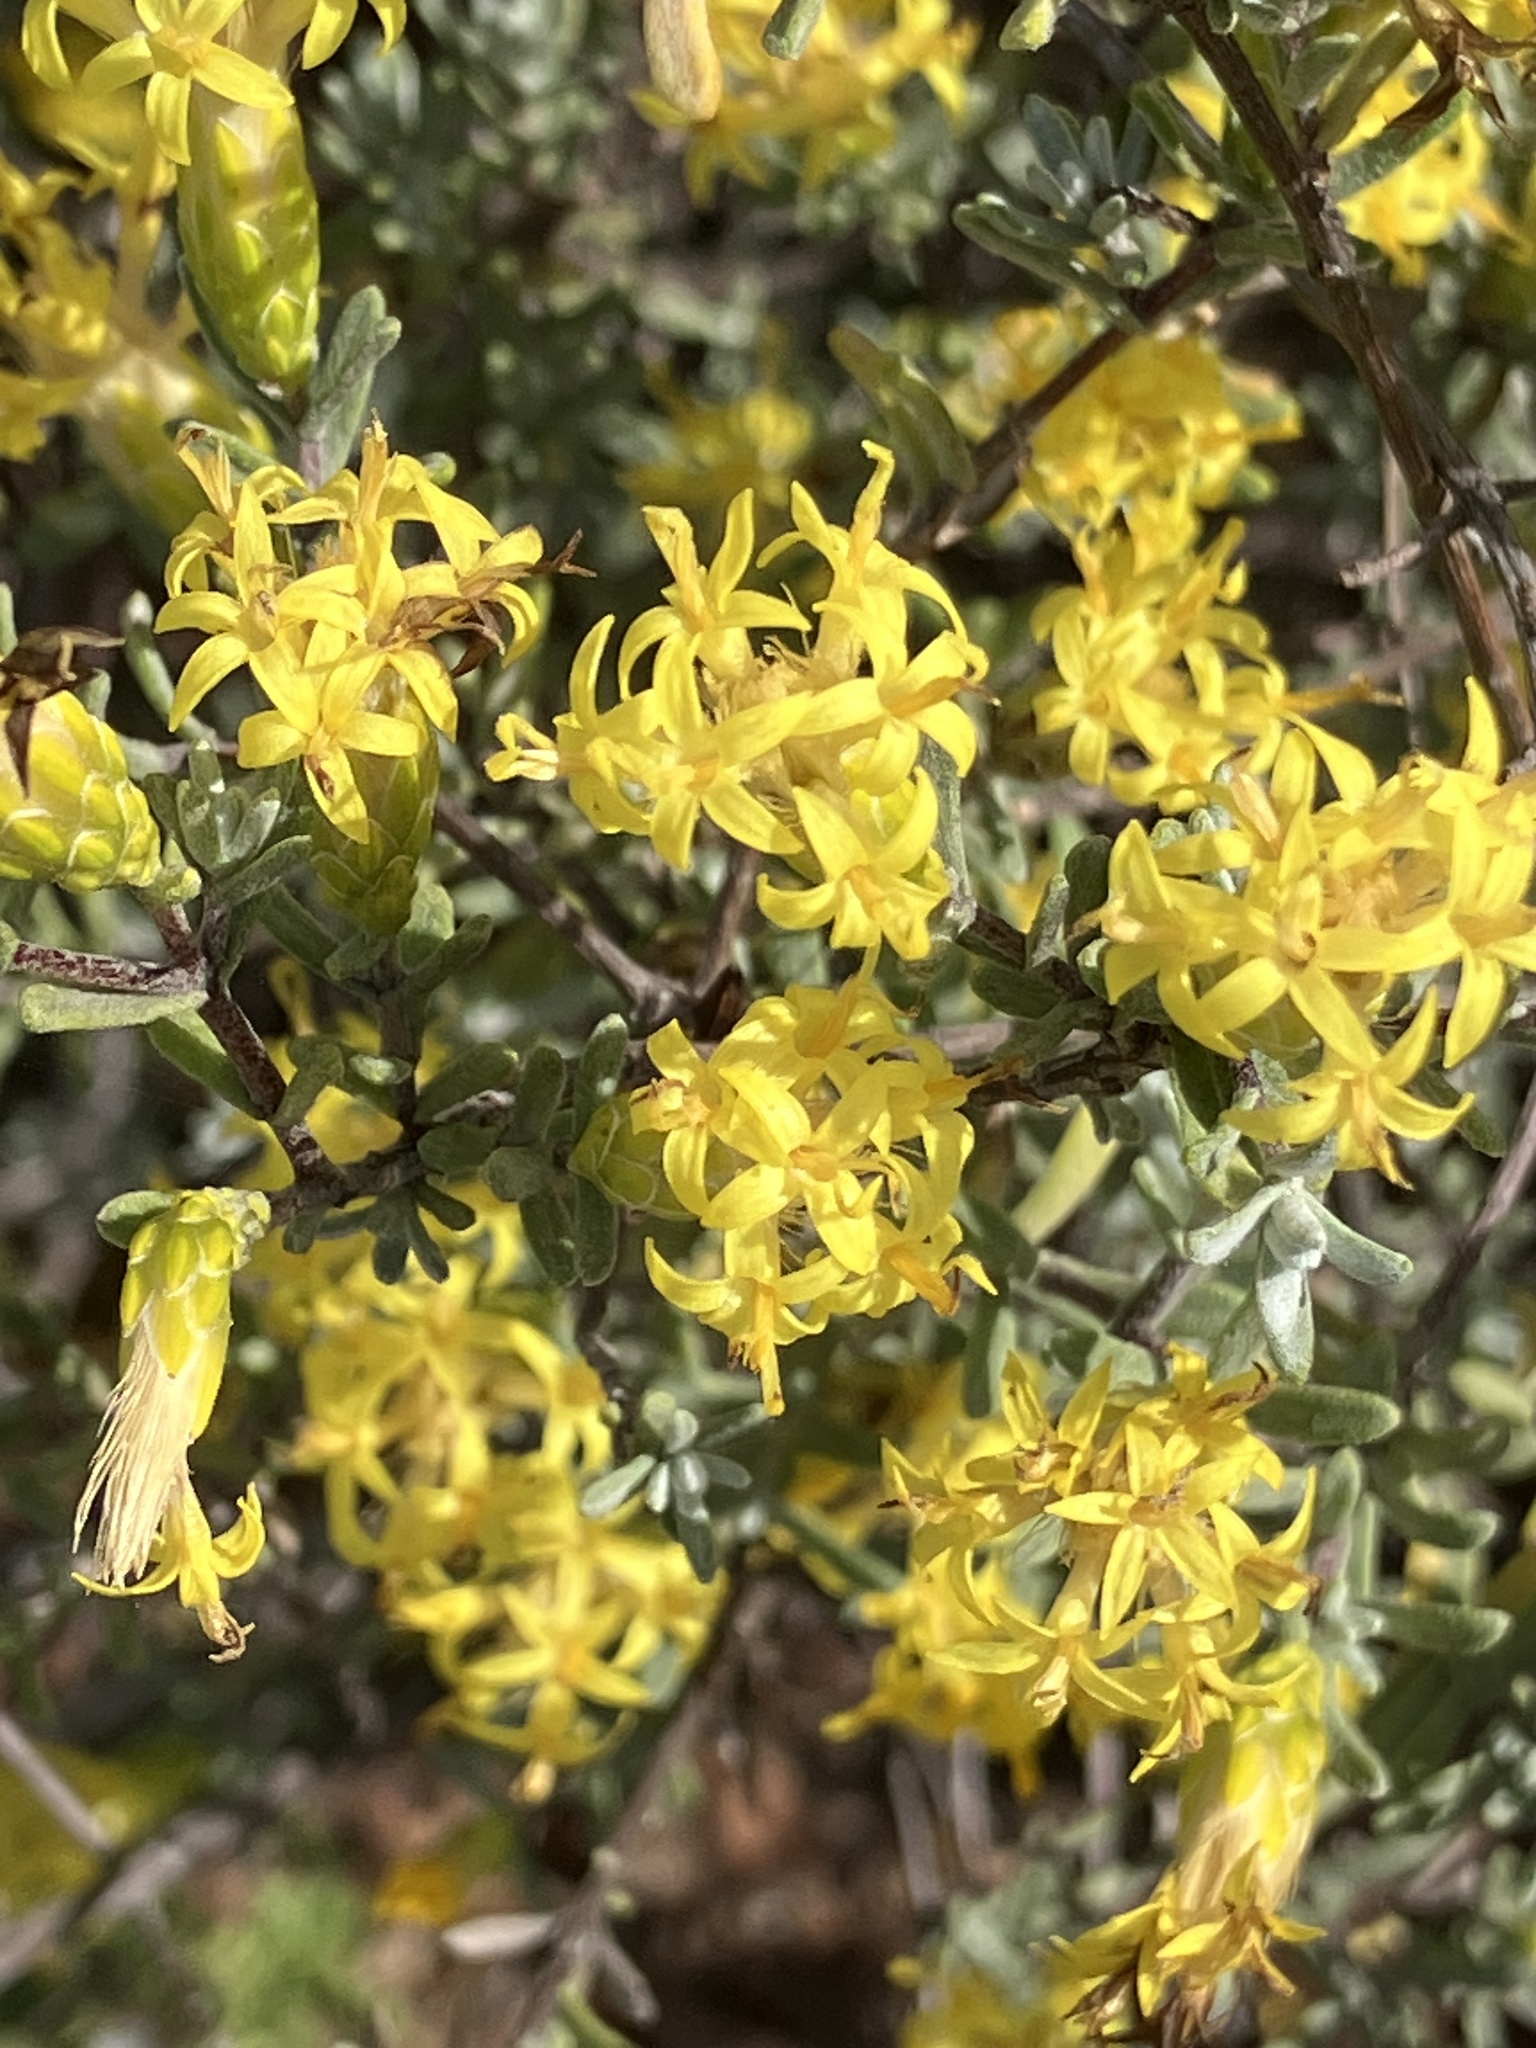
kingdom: Plantae
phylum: Tracheophyta
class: Magnoliopsida
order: Asterales
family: Asteraceae
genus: Pteronia
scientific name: Pteronia incana
